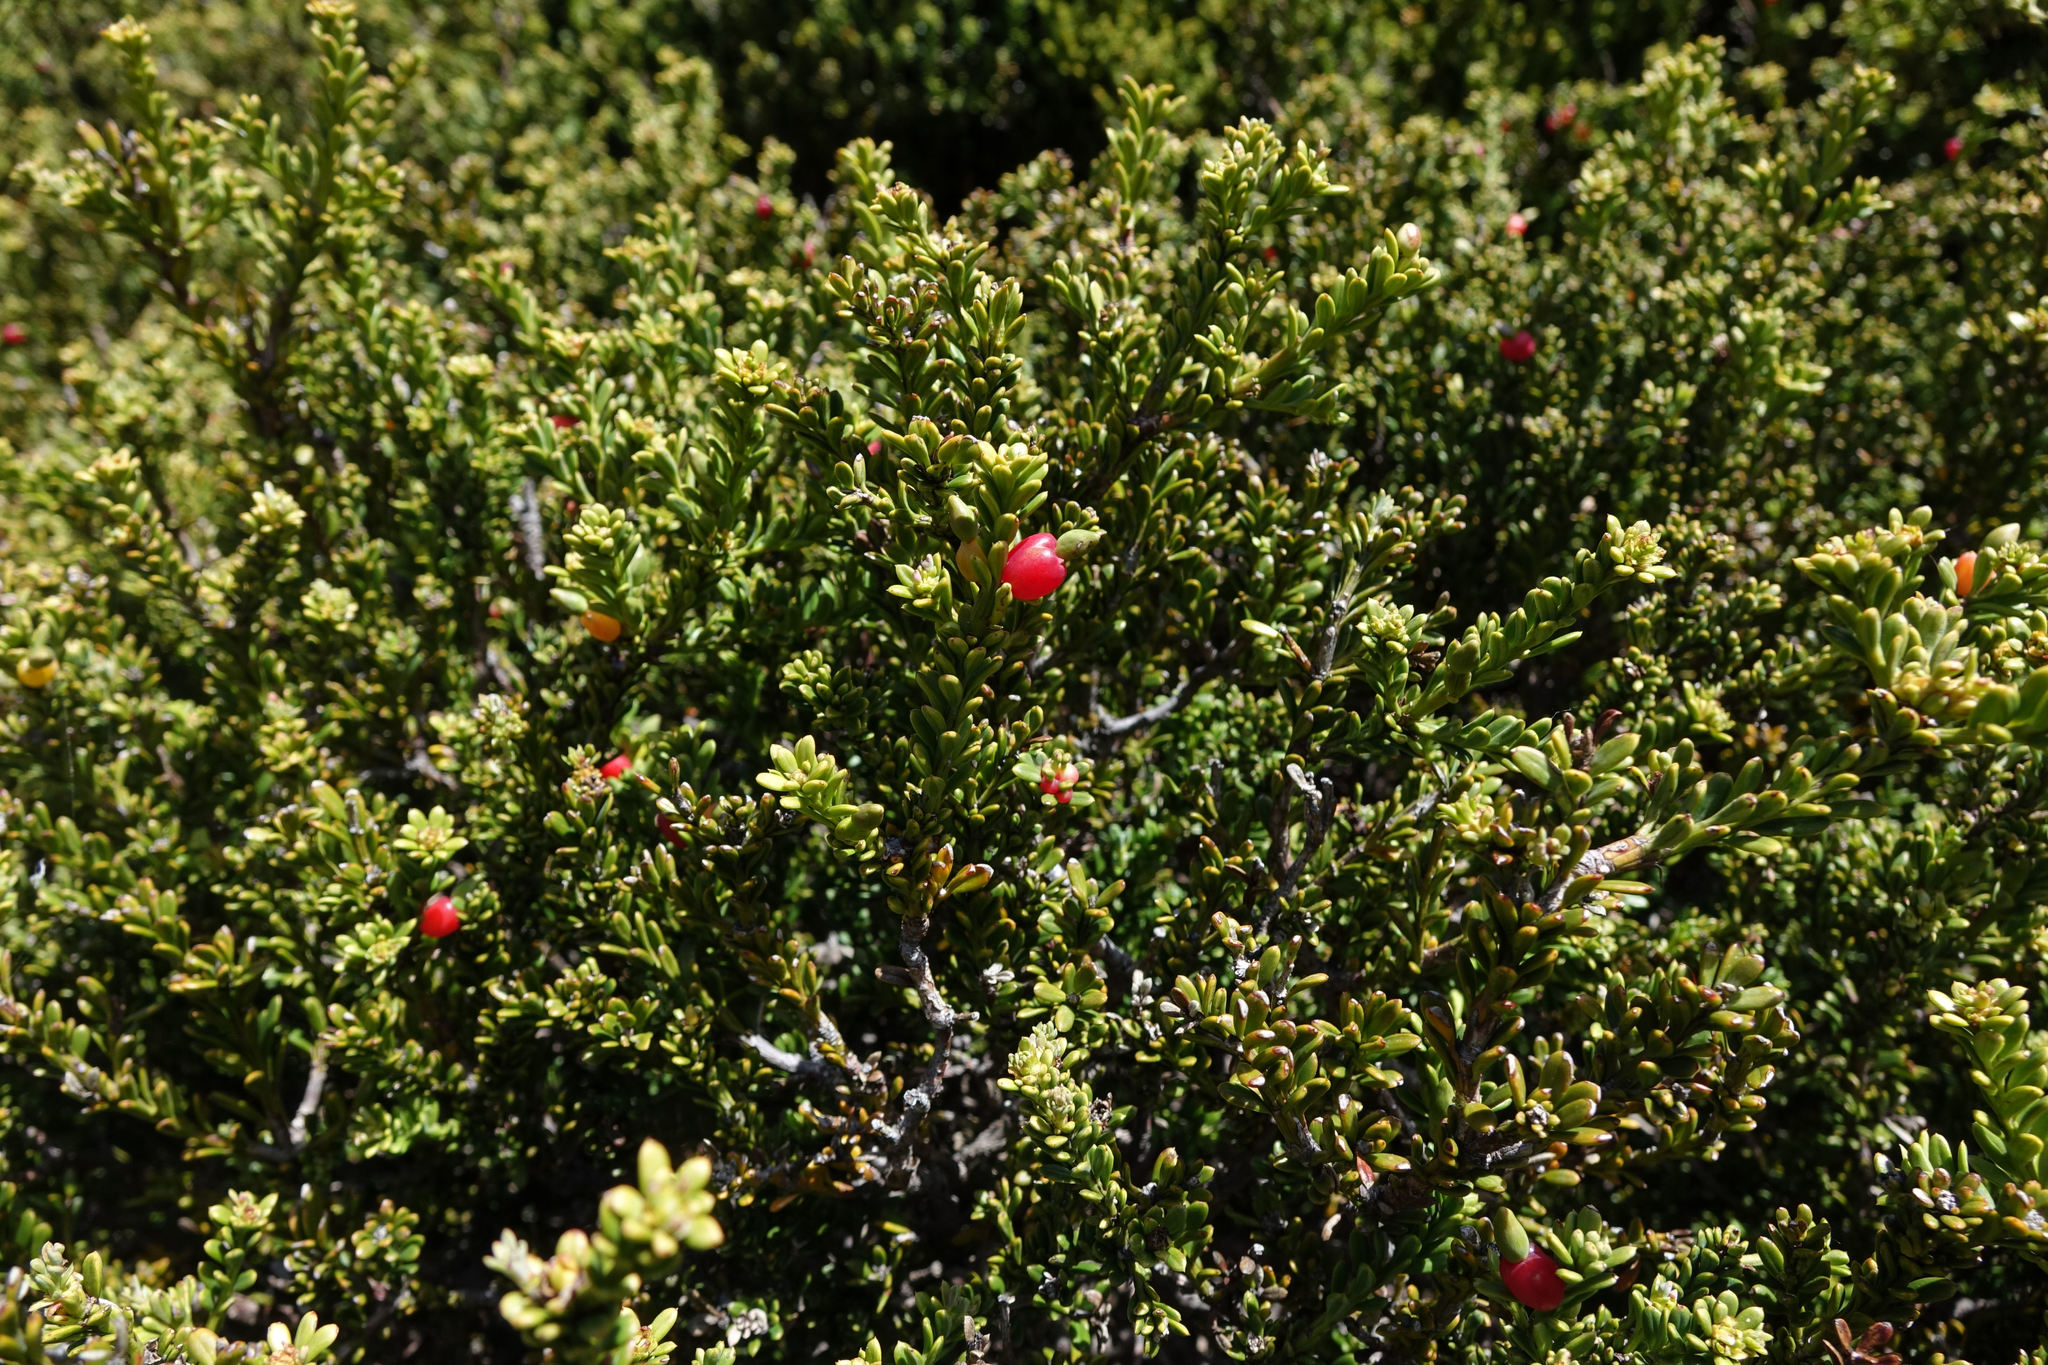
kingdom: Plantae
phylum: Tracheophyta
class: Pinopsida
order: Pinales
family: Podocarpaceae
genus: Podocarpus
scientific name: Podocarpus nivalis
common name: Alpine totara
